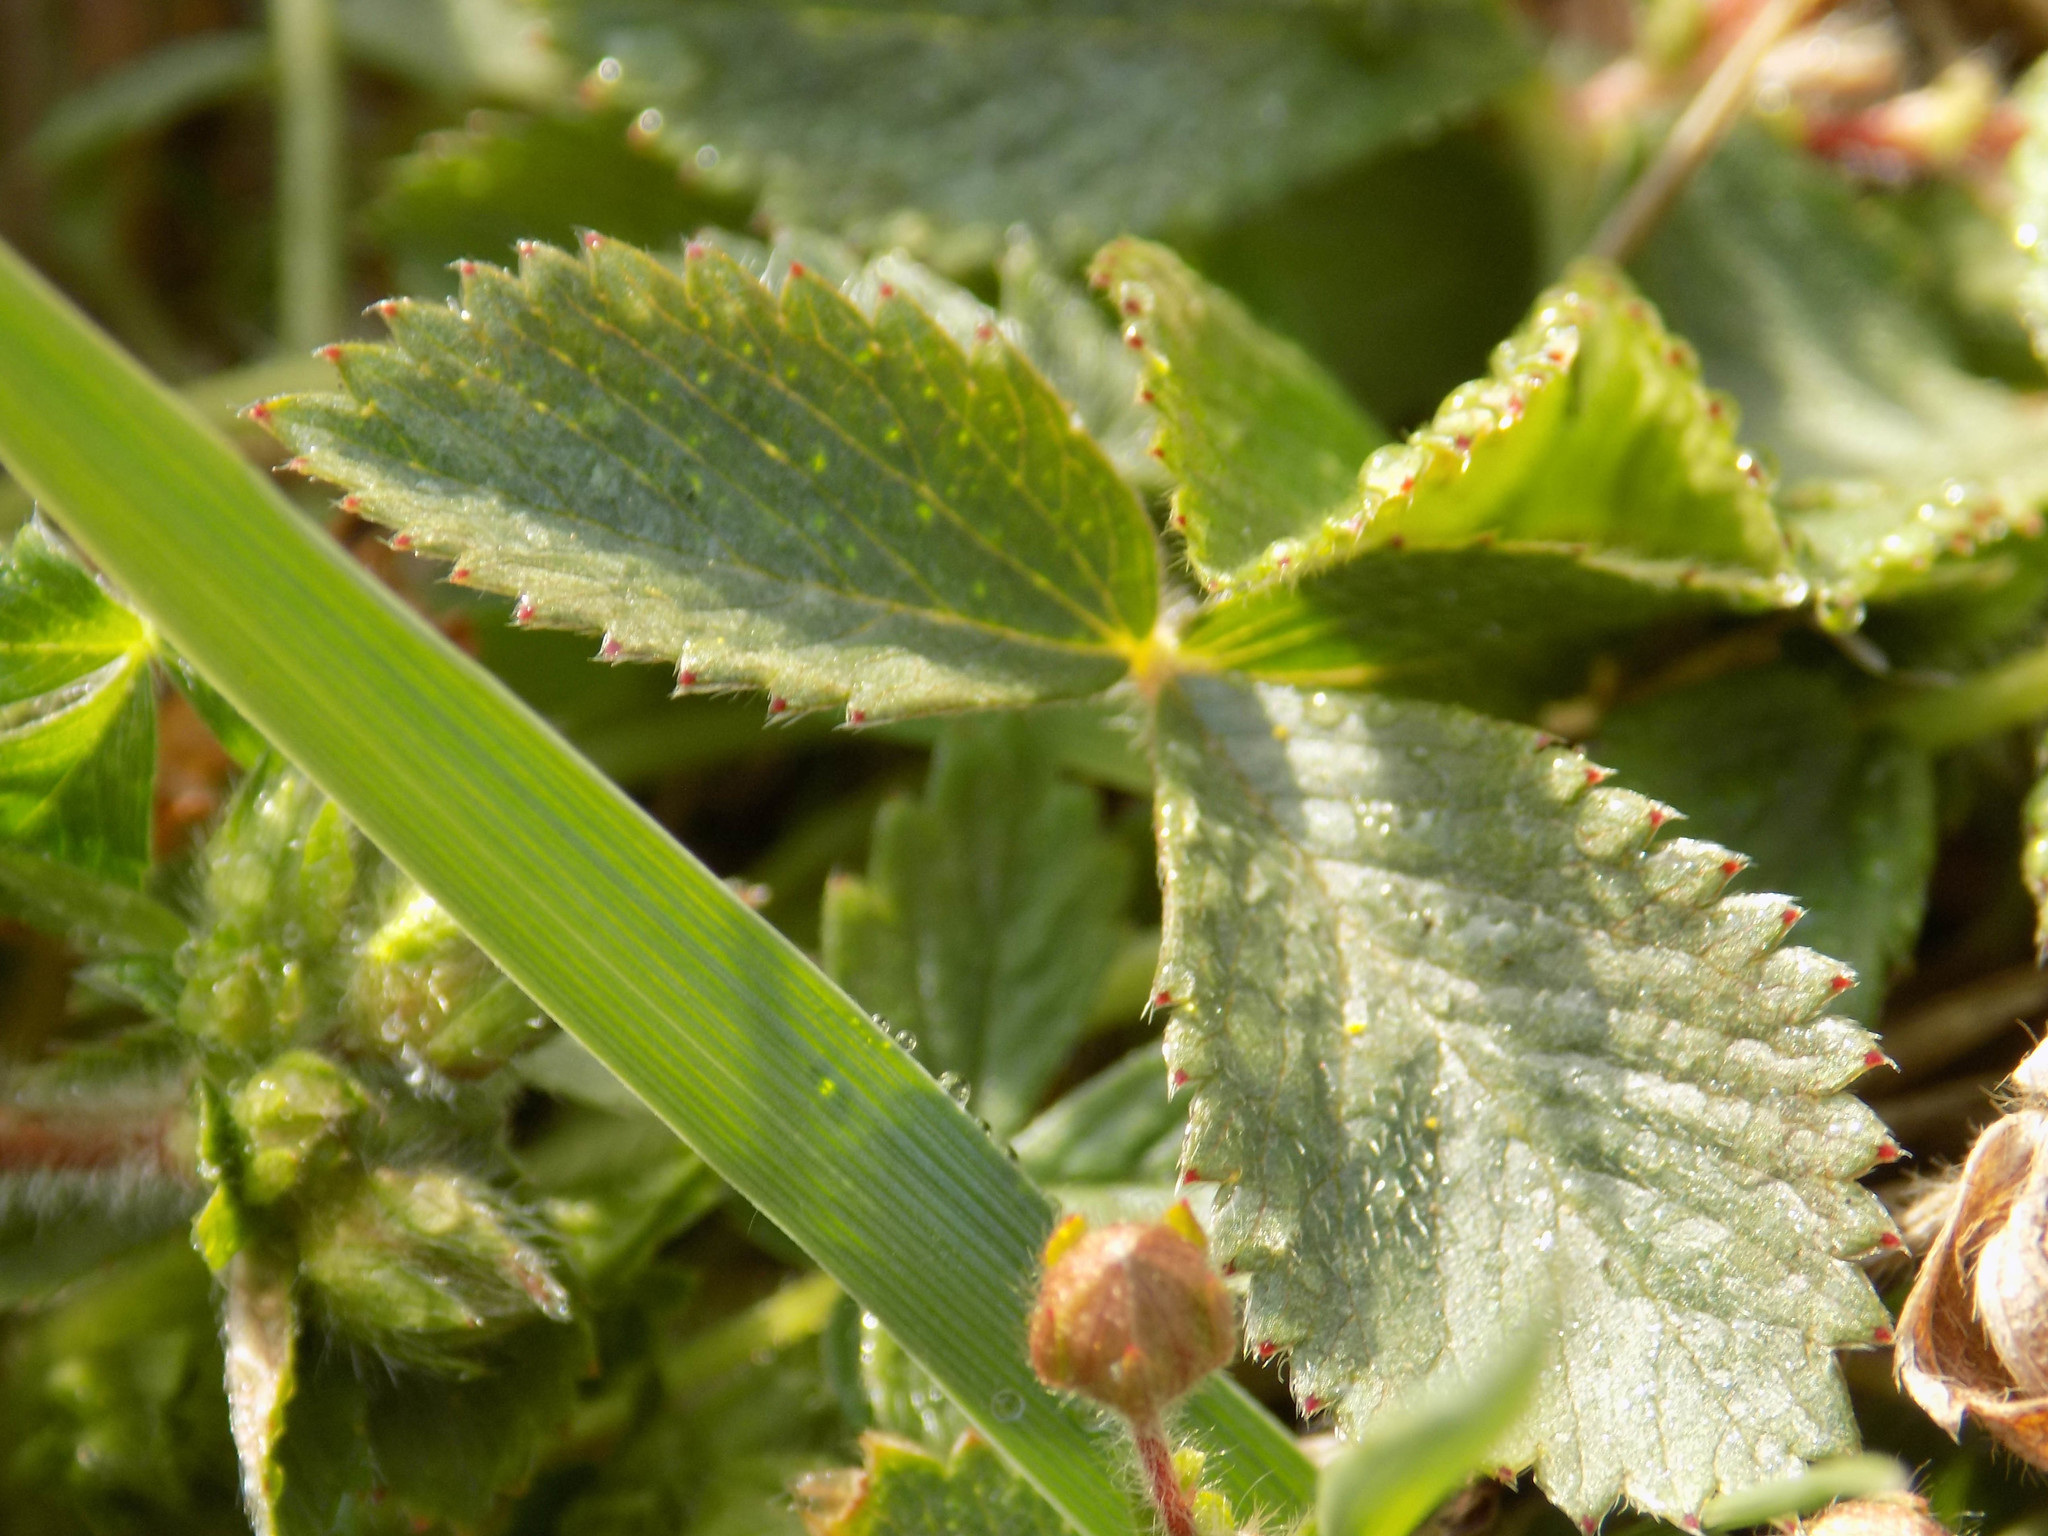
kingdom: Plantae
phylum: Tracheophyta
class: Magnoliopsida
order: Rosales
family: Rosaceae
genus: Potentilla
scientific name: Potentilla fragarioides
